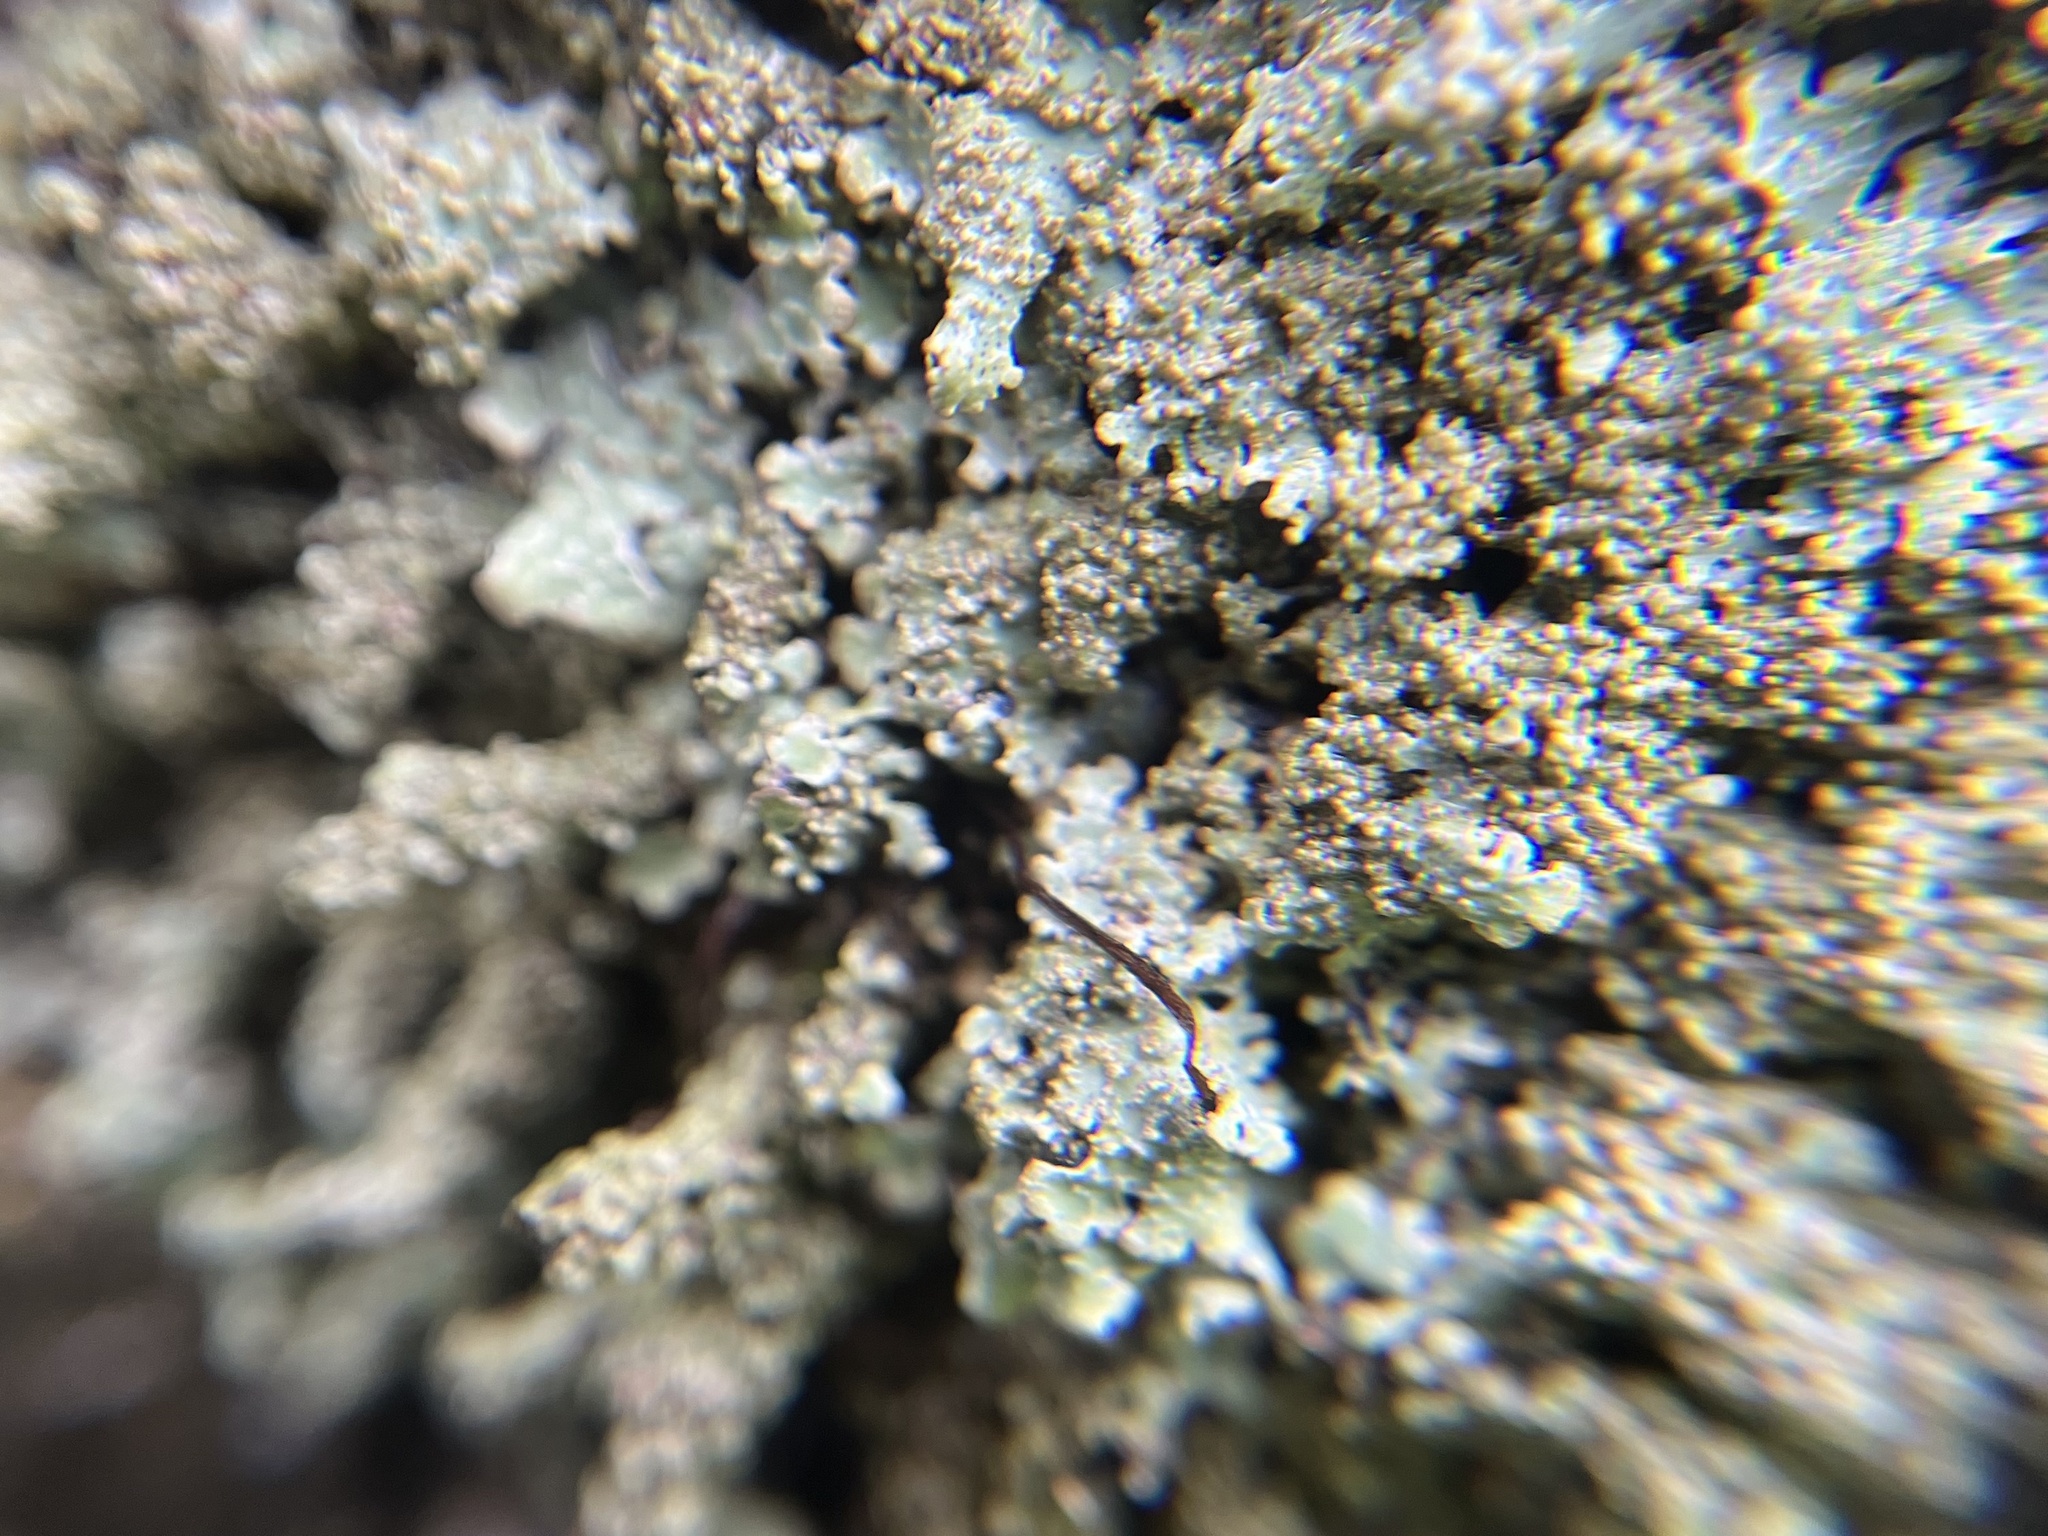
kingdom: Fungi
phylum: Ascomycota
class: Lecanoromycetes
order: Lecanorales
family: Parmeliaceae
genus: Parmelia
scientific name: Parmelia saxatilis
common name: Salted shield lichen
